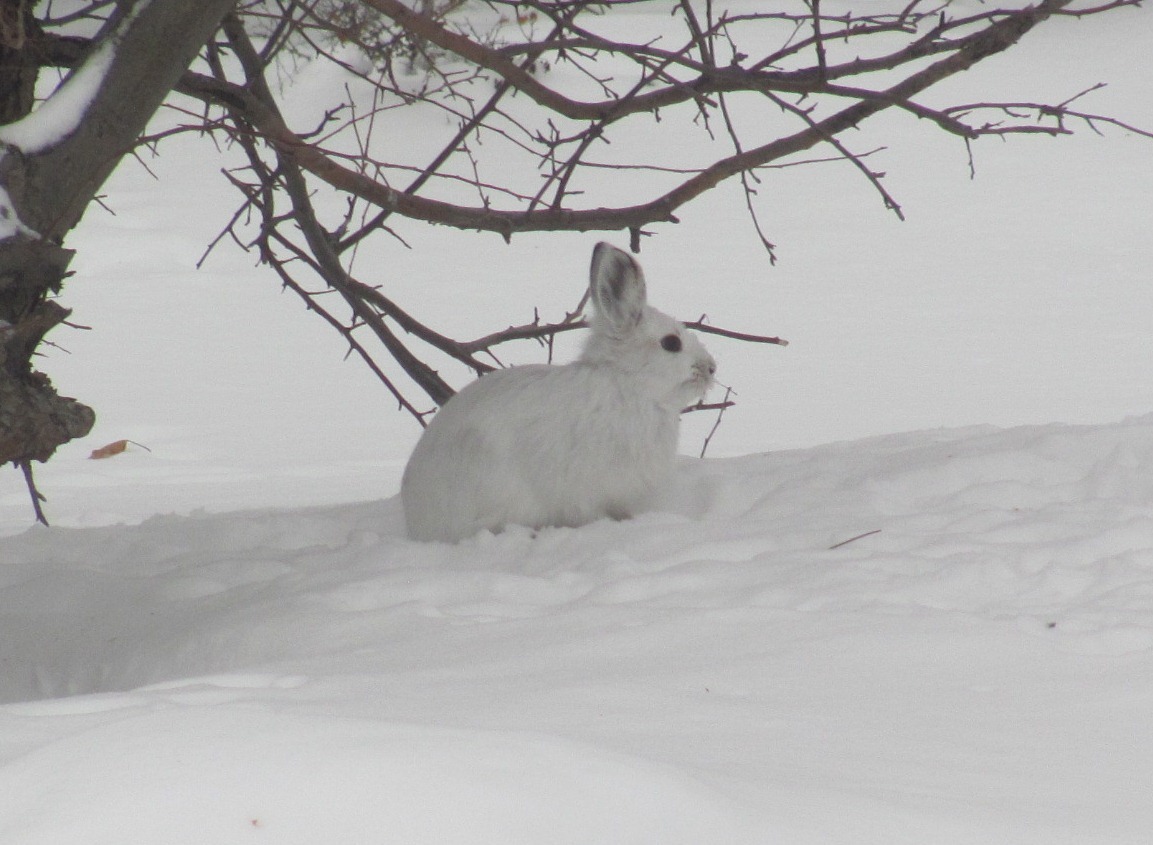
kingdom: Animalia
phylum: Chordata
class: Mammalia
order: Lagomorpha
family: Leporidae
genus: Lepus
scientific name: Lepus americanus
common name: Snowshoe hare
